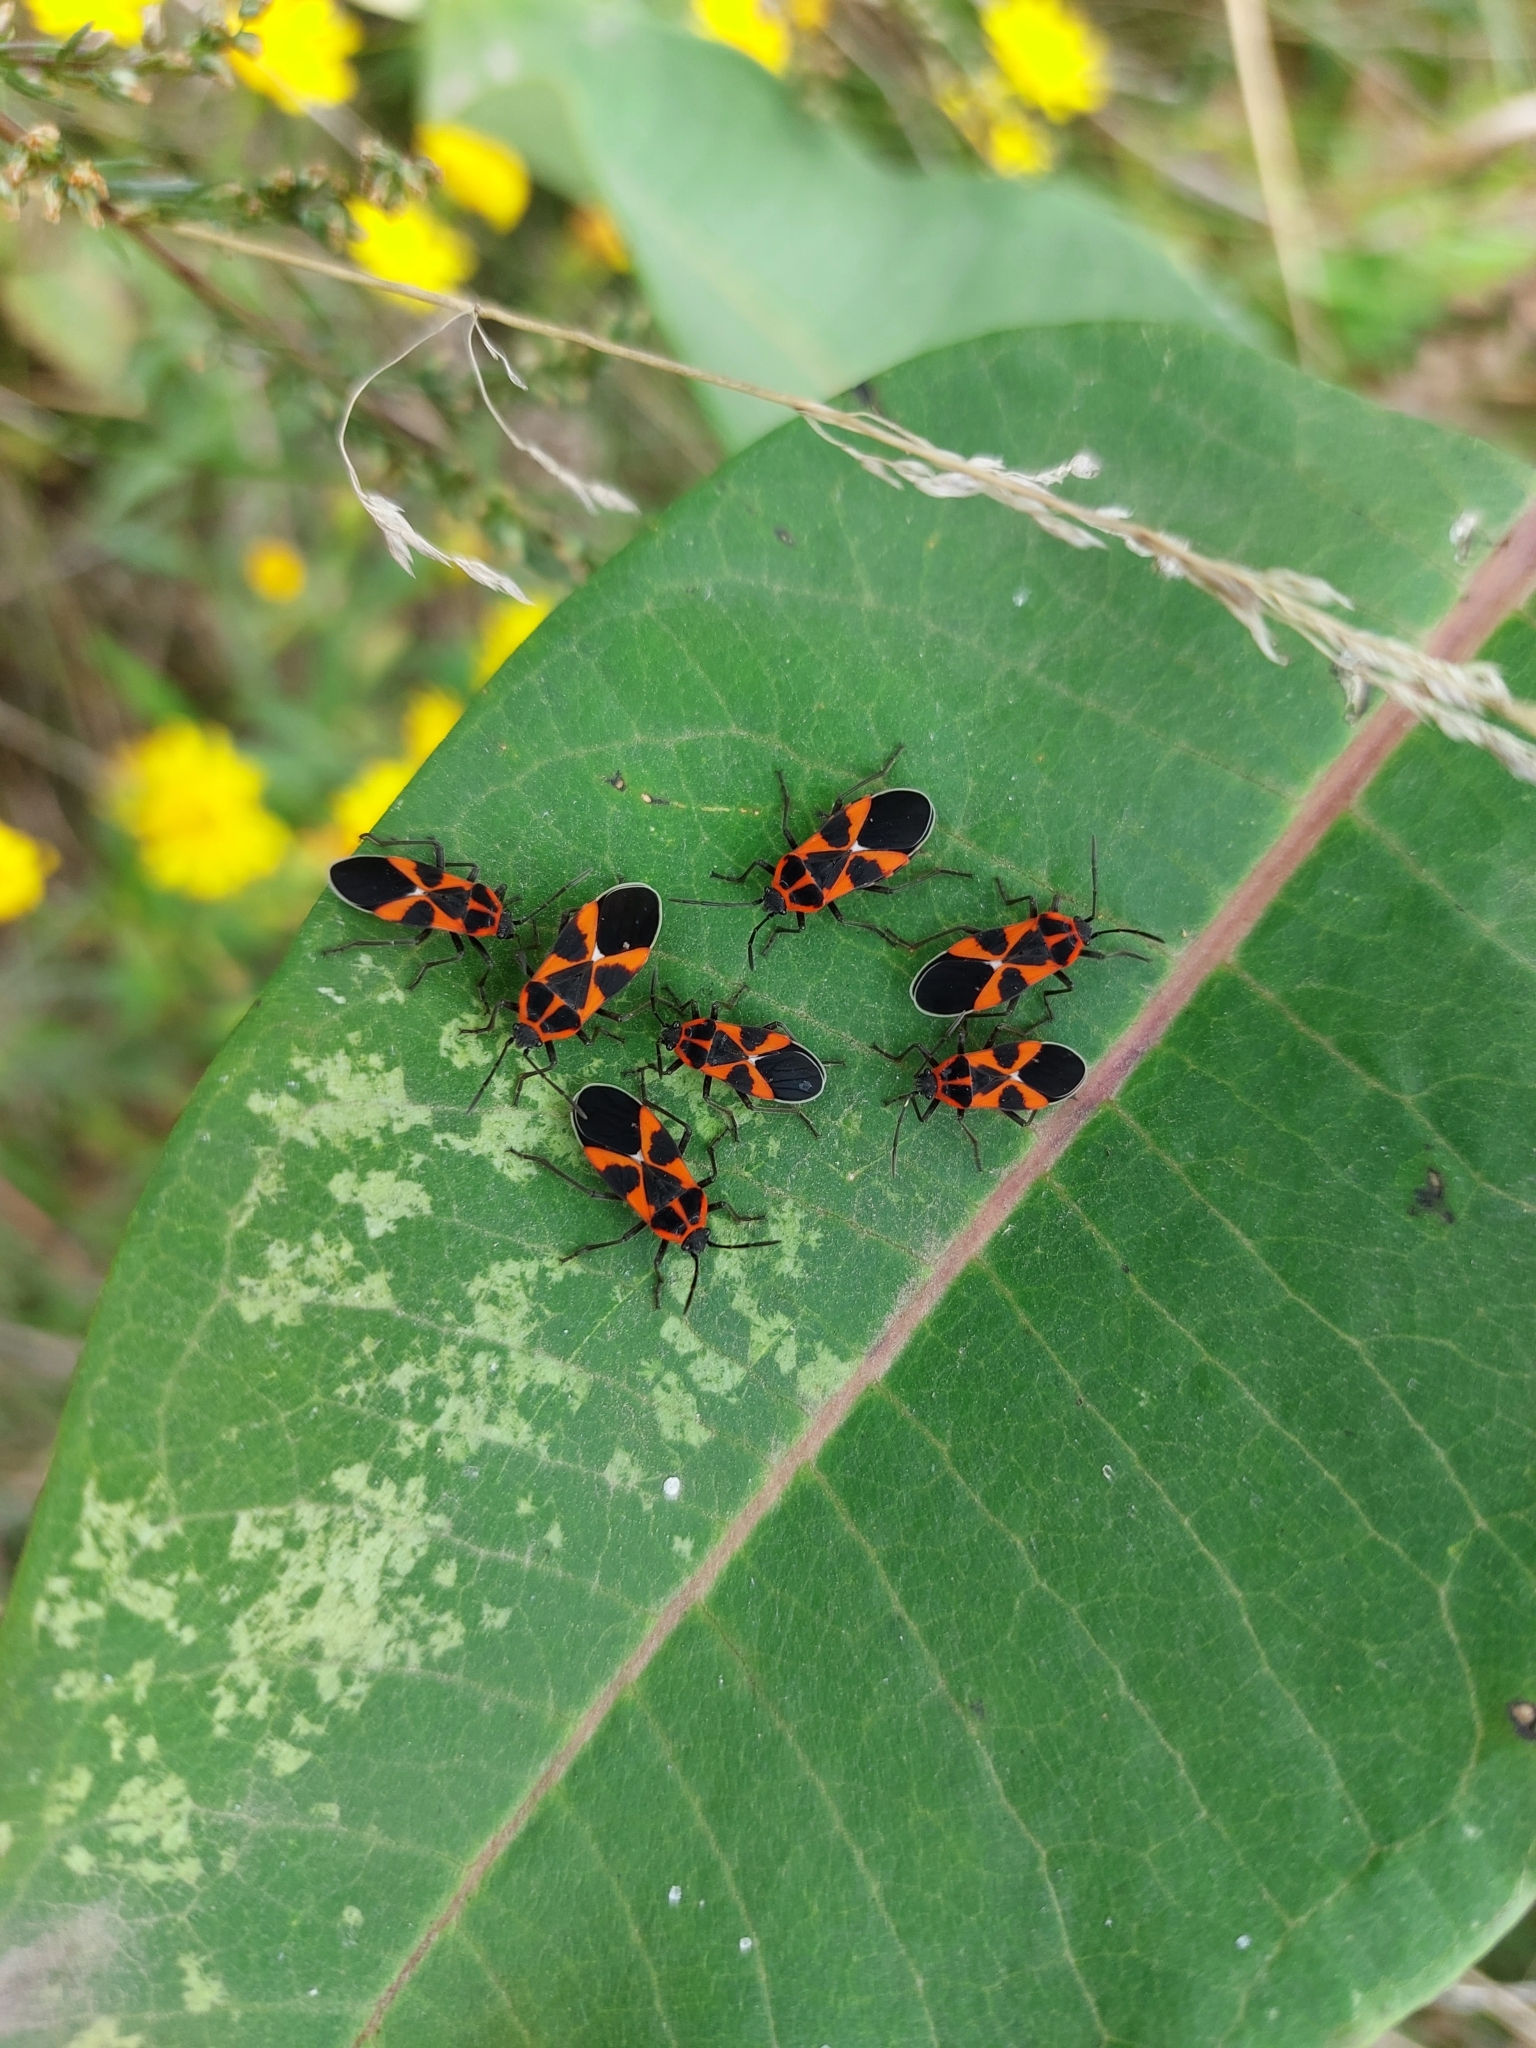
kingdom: Animalia
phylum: Arthropoda
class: Insecta
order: Hemiptera
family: Lygaeidae
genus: Tropidothorax
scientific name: Tropidothorax leucopterus
